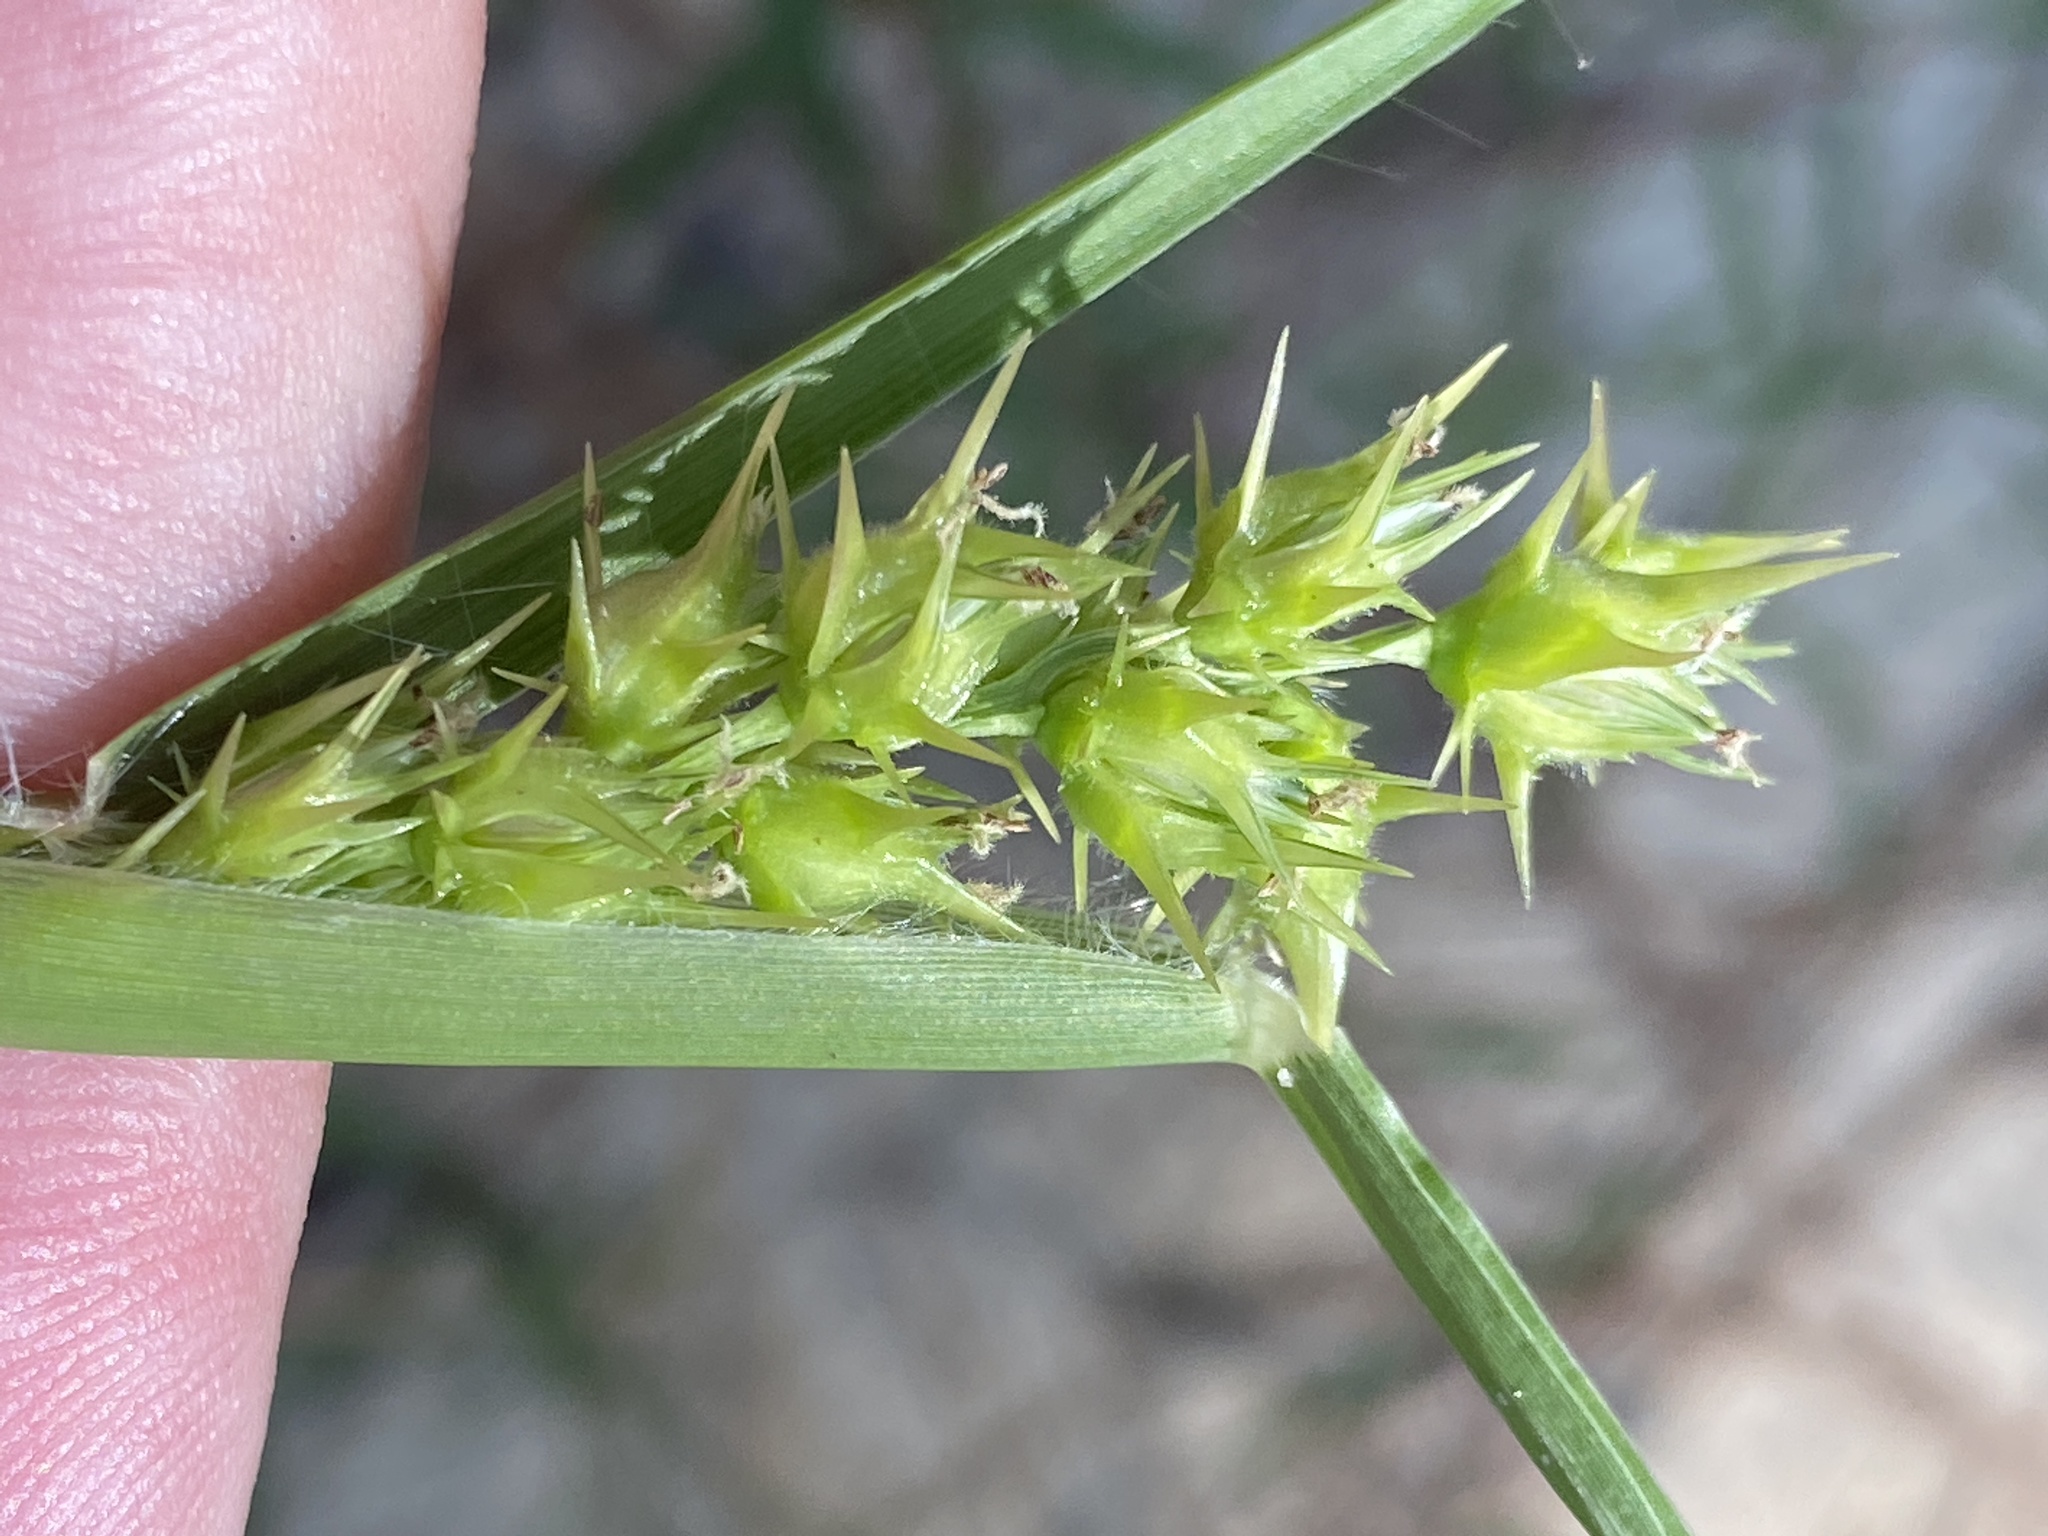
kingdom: Plantae
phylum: Tracheophyta
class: Liliopsida
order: Poales
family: Poaceae
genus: Cenchrus
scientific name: Cenchrus longispinus
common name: Mat sandbur
